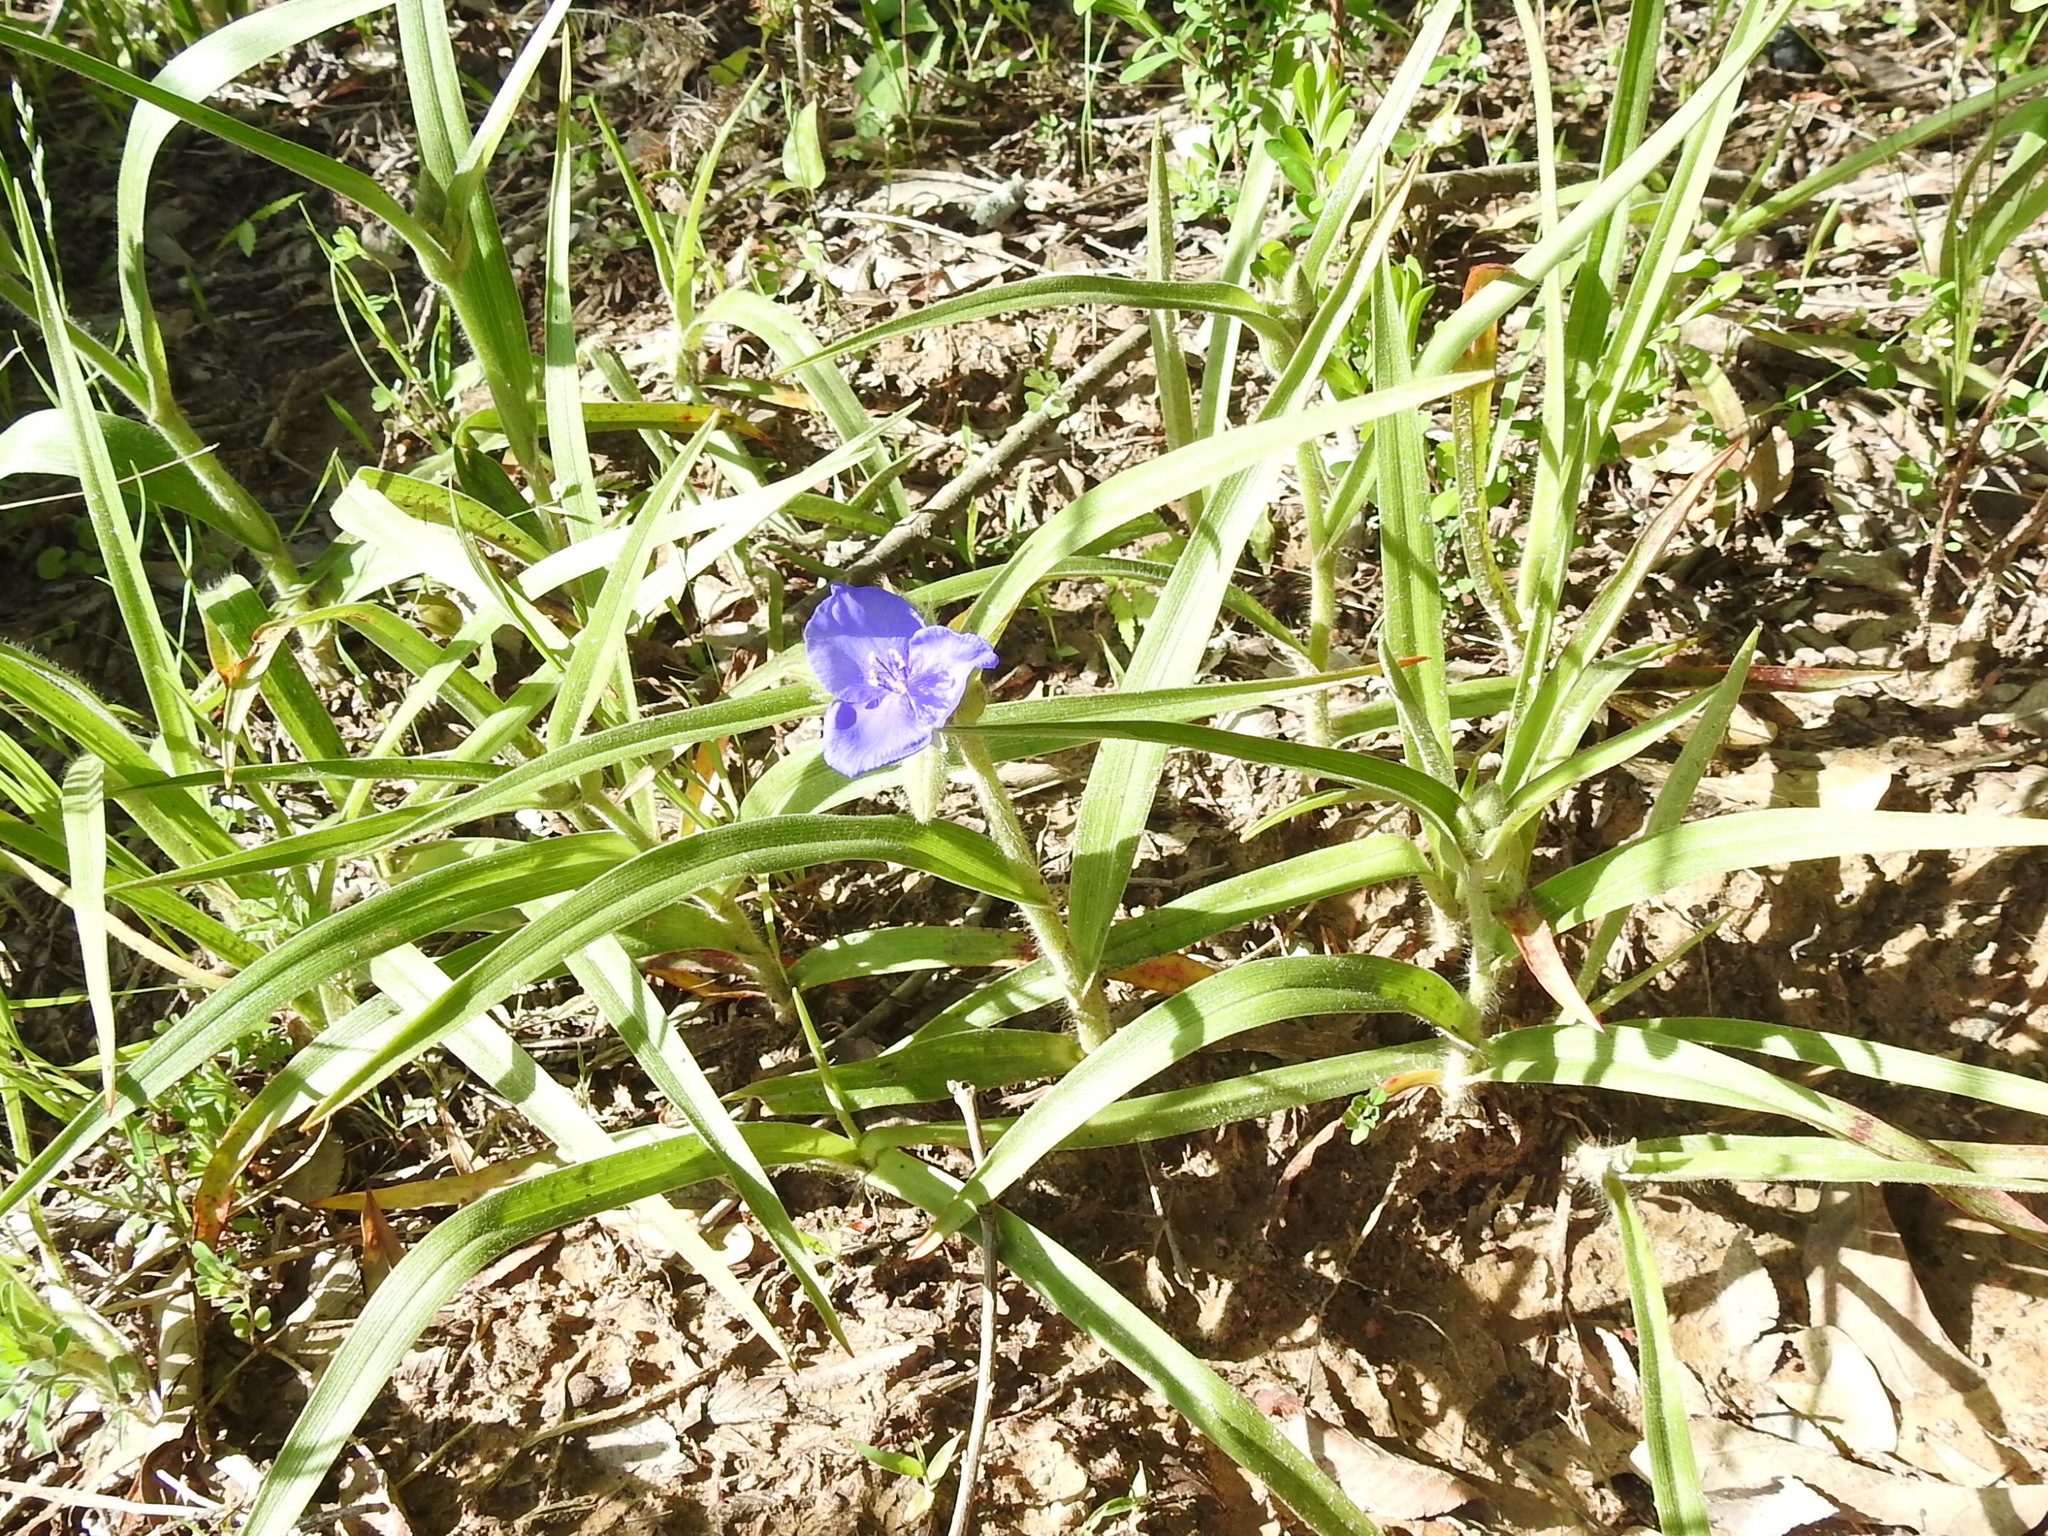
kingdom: Plantae
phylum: Tracheophyta
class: Liliopsida
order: Commelinales
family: Commelinaceae
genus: Tradescantia
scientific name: Tradescantia occidentalis
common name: Prairie spiderwort
